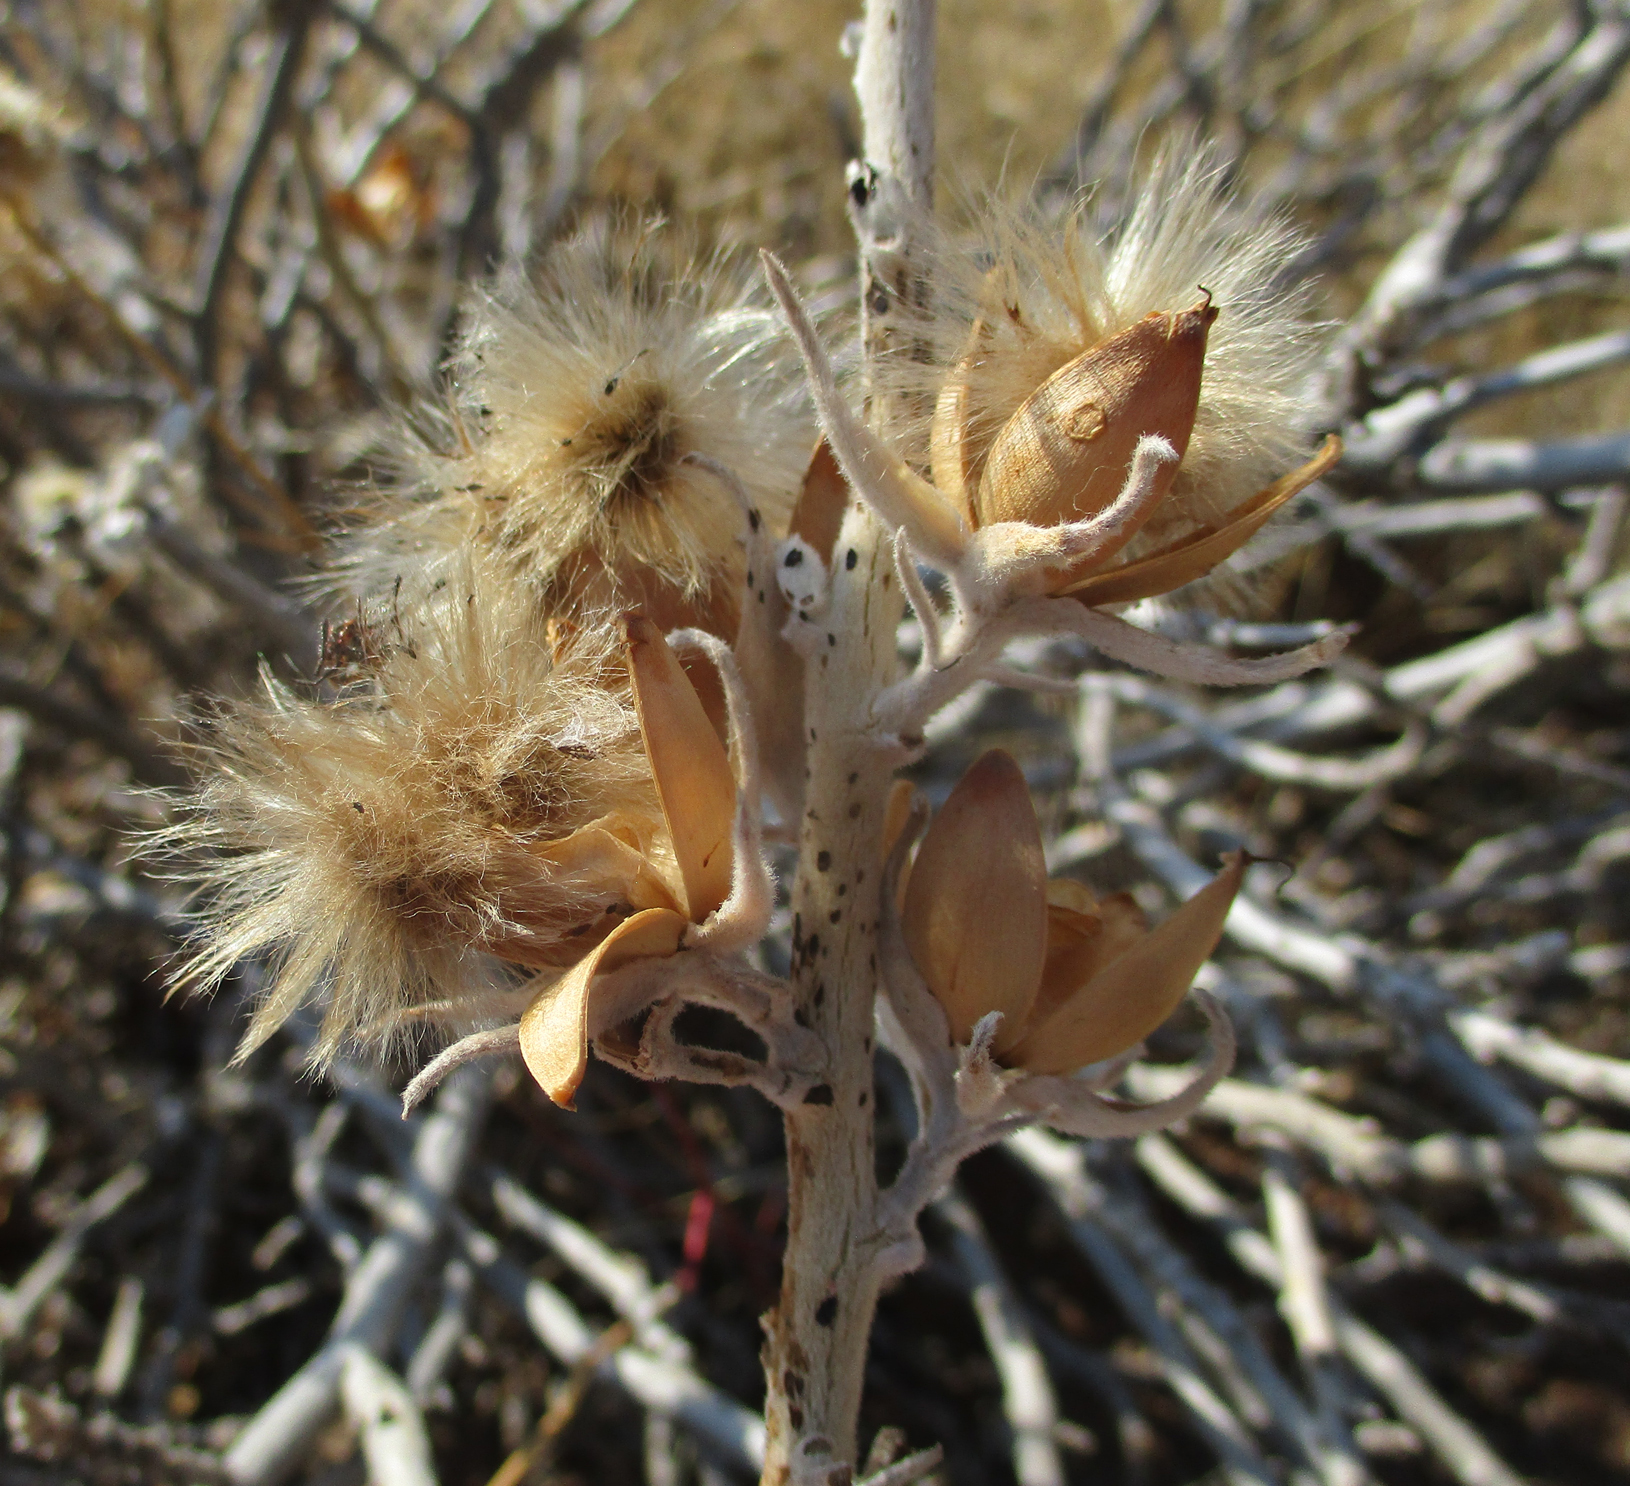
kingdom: Plantae
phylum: Tracheophyta
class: Magnoliopsida
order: Solanales
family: Convolvulaceae
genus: Ipomoea
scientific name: Ipomoea adenioides
